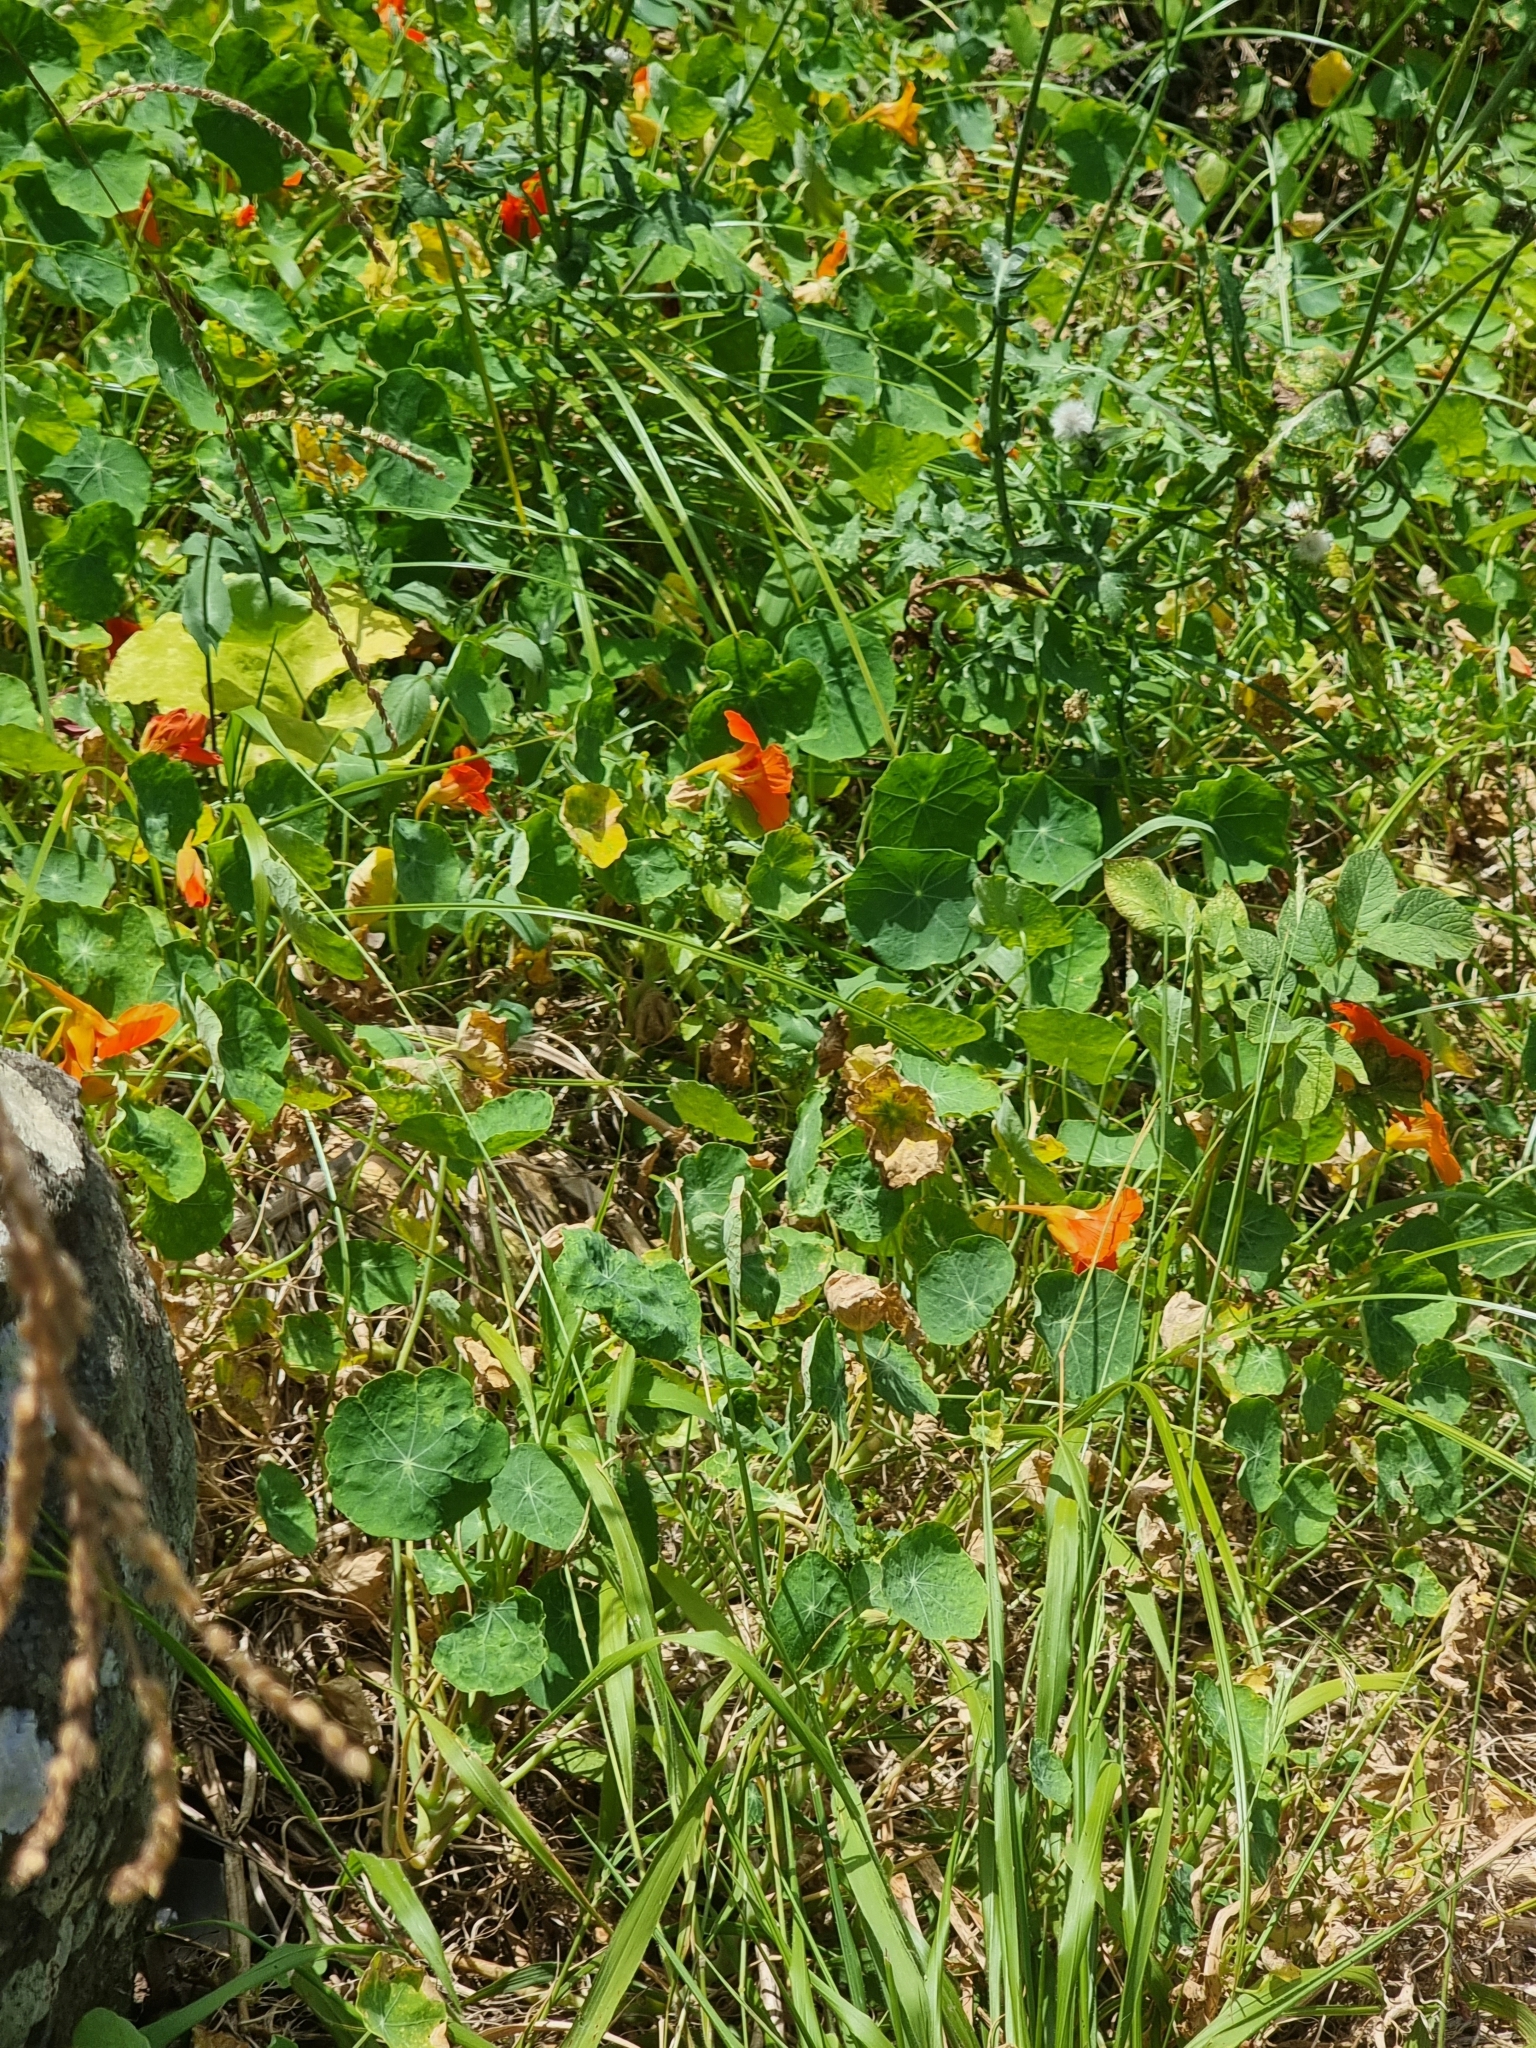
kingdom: Plantae
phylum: Tracheophyta
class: Magnoliopsida
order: Brassicales
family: Tropaeolaceae
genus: Tropaeolum
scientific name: Tropaeolum majus
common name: Nasturtium
